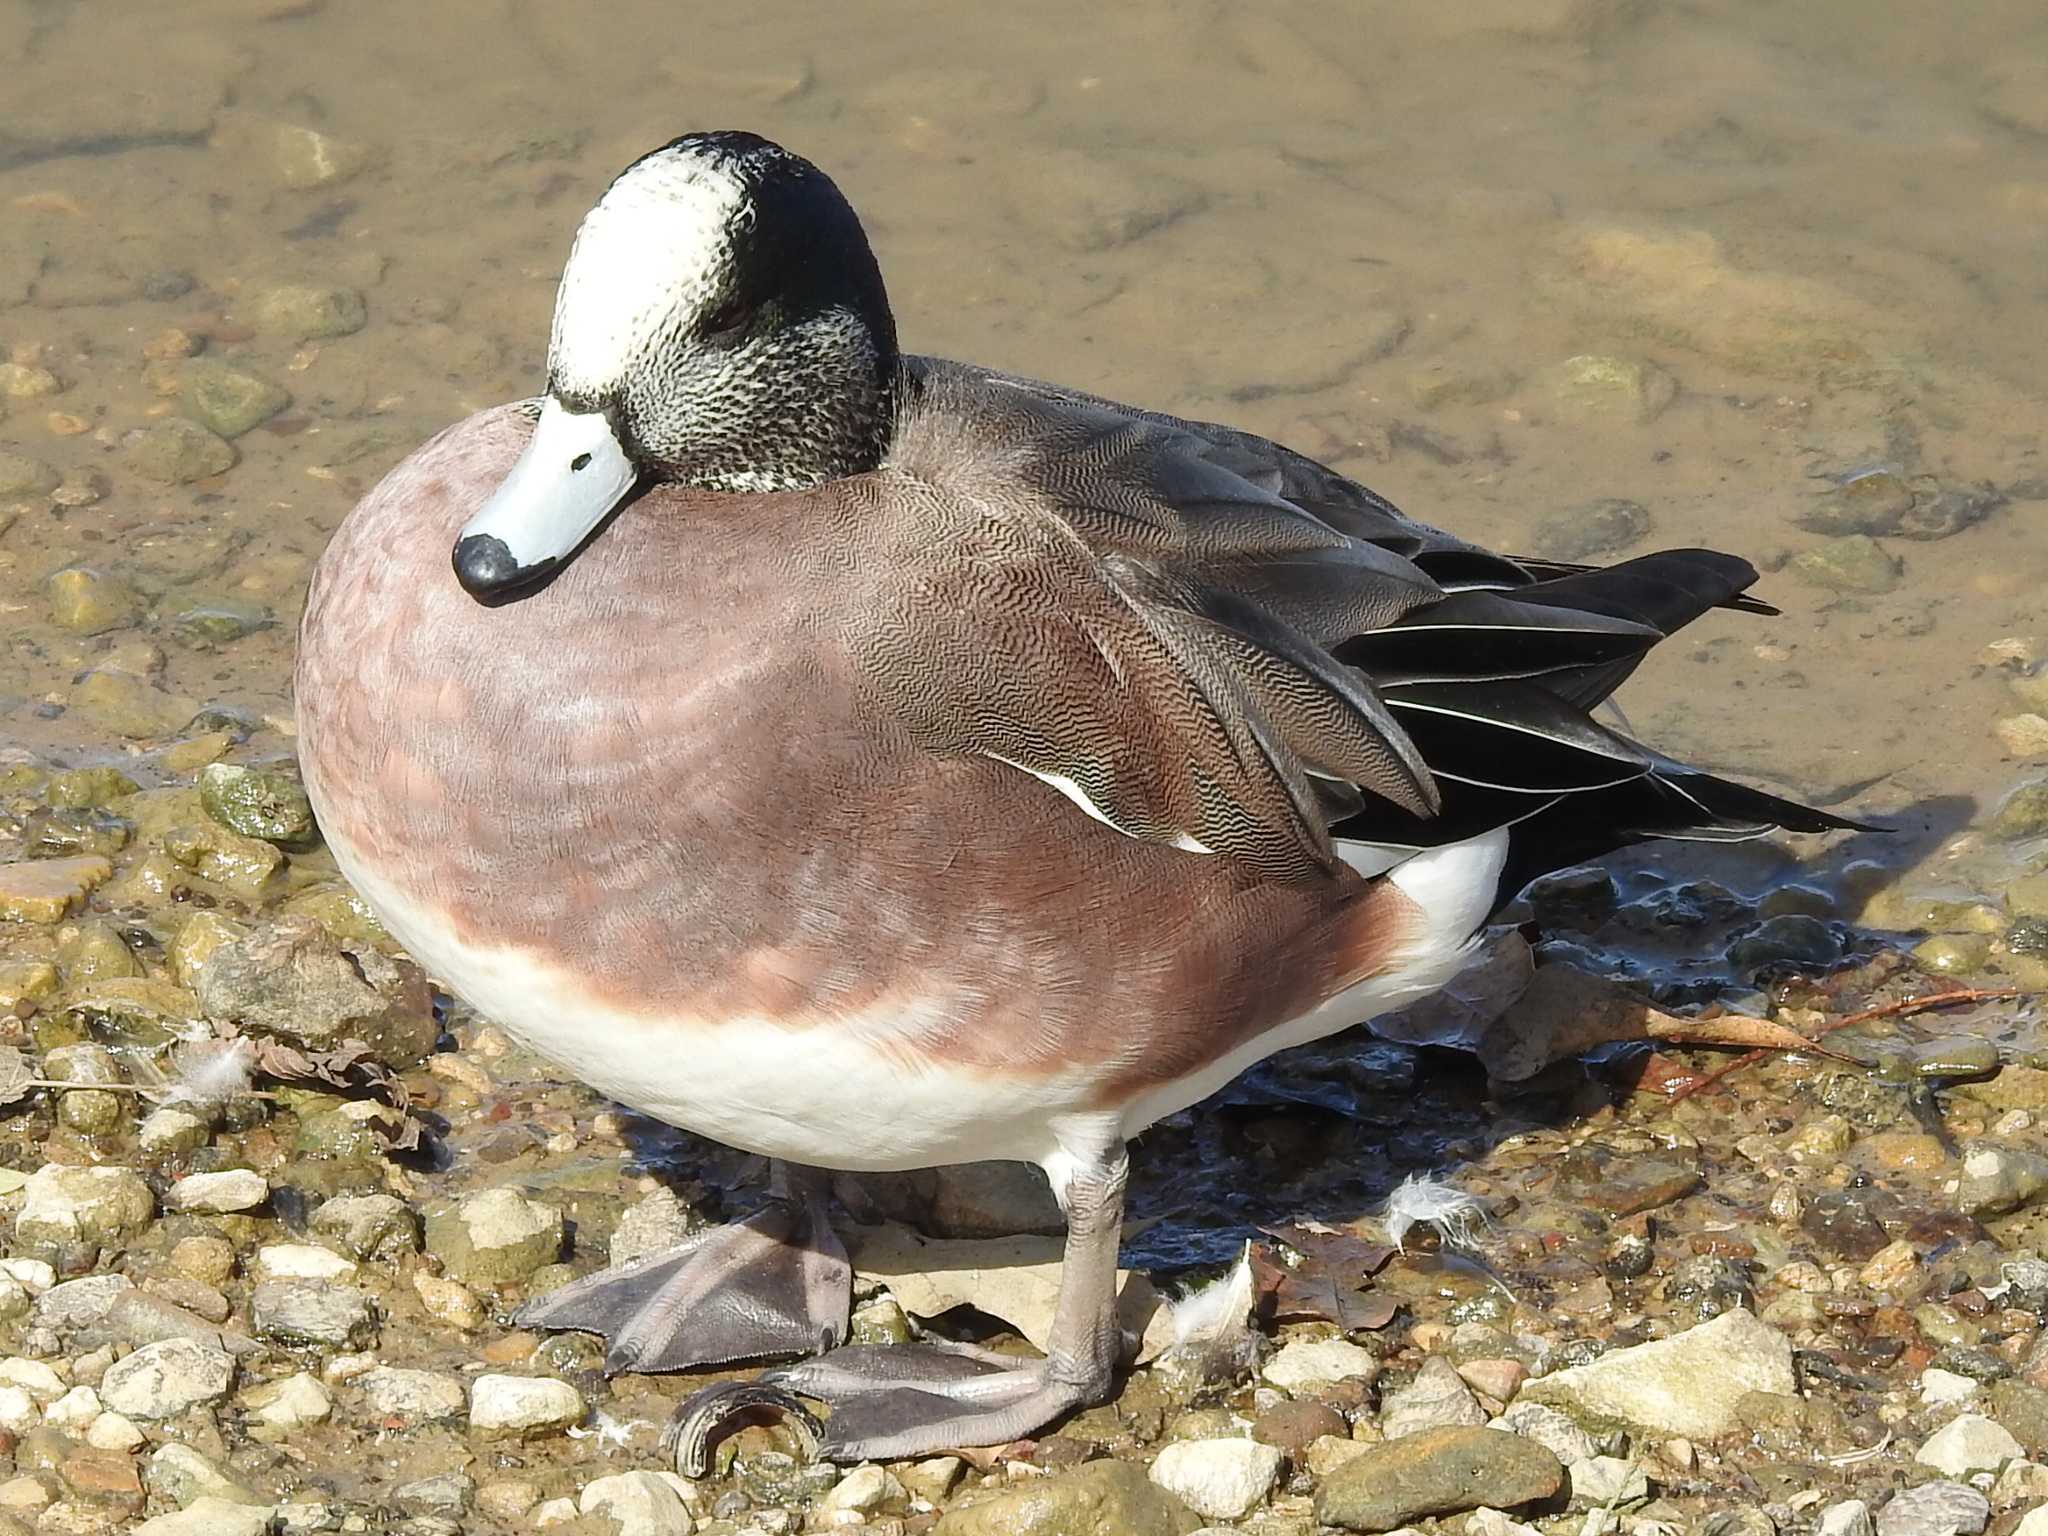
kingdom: Animalia
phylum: Chordata
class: Aves
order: Anseriformes
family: Anatidae
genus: Mareca
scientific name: Mareca americana
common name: American wigeon
